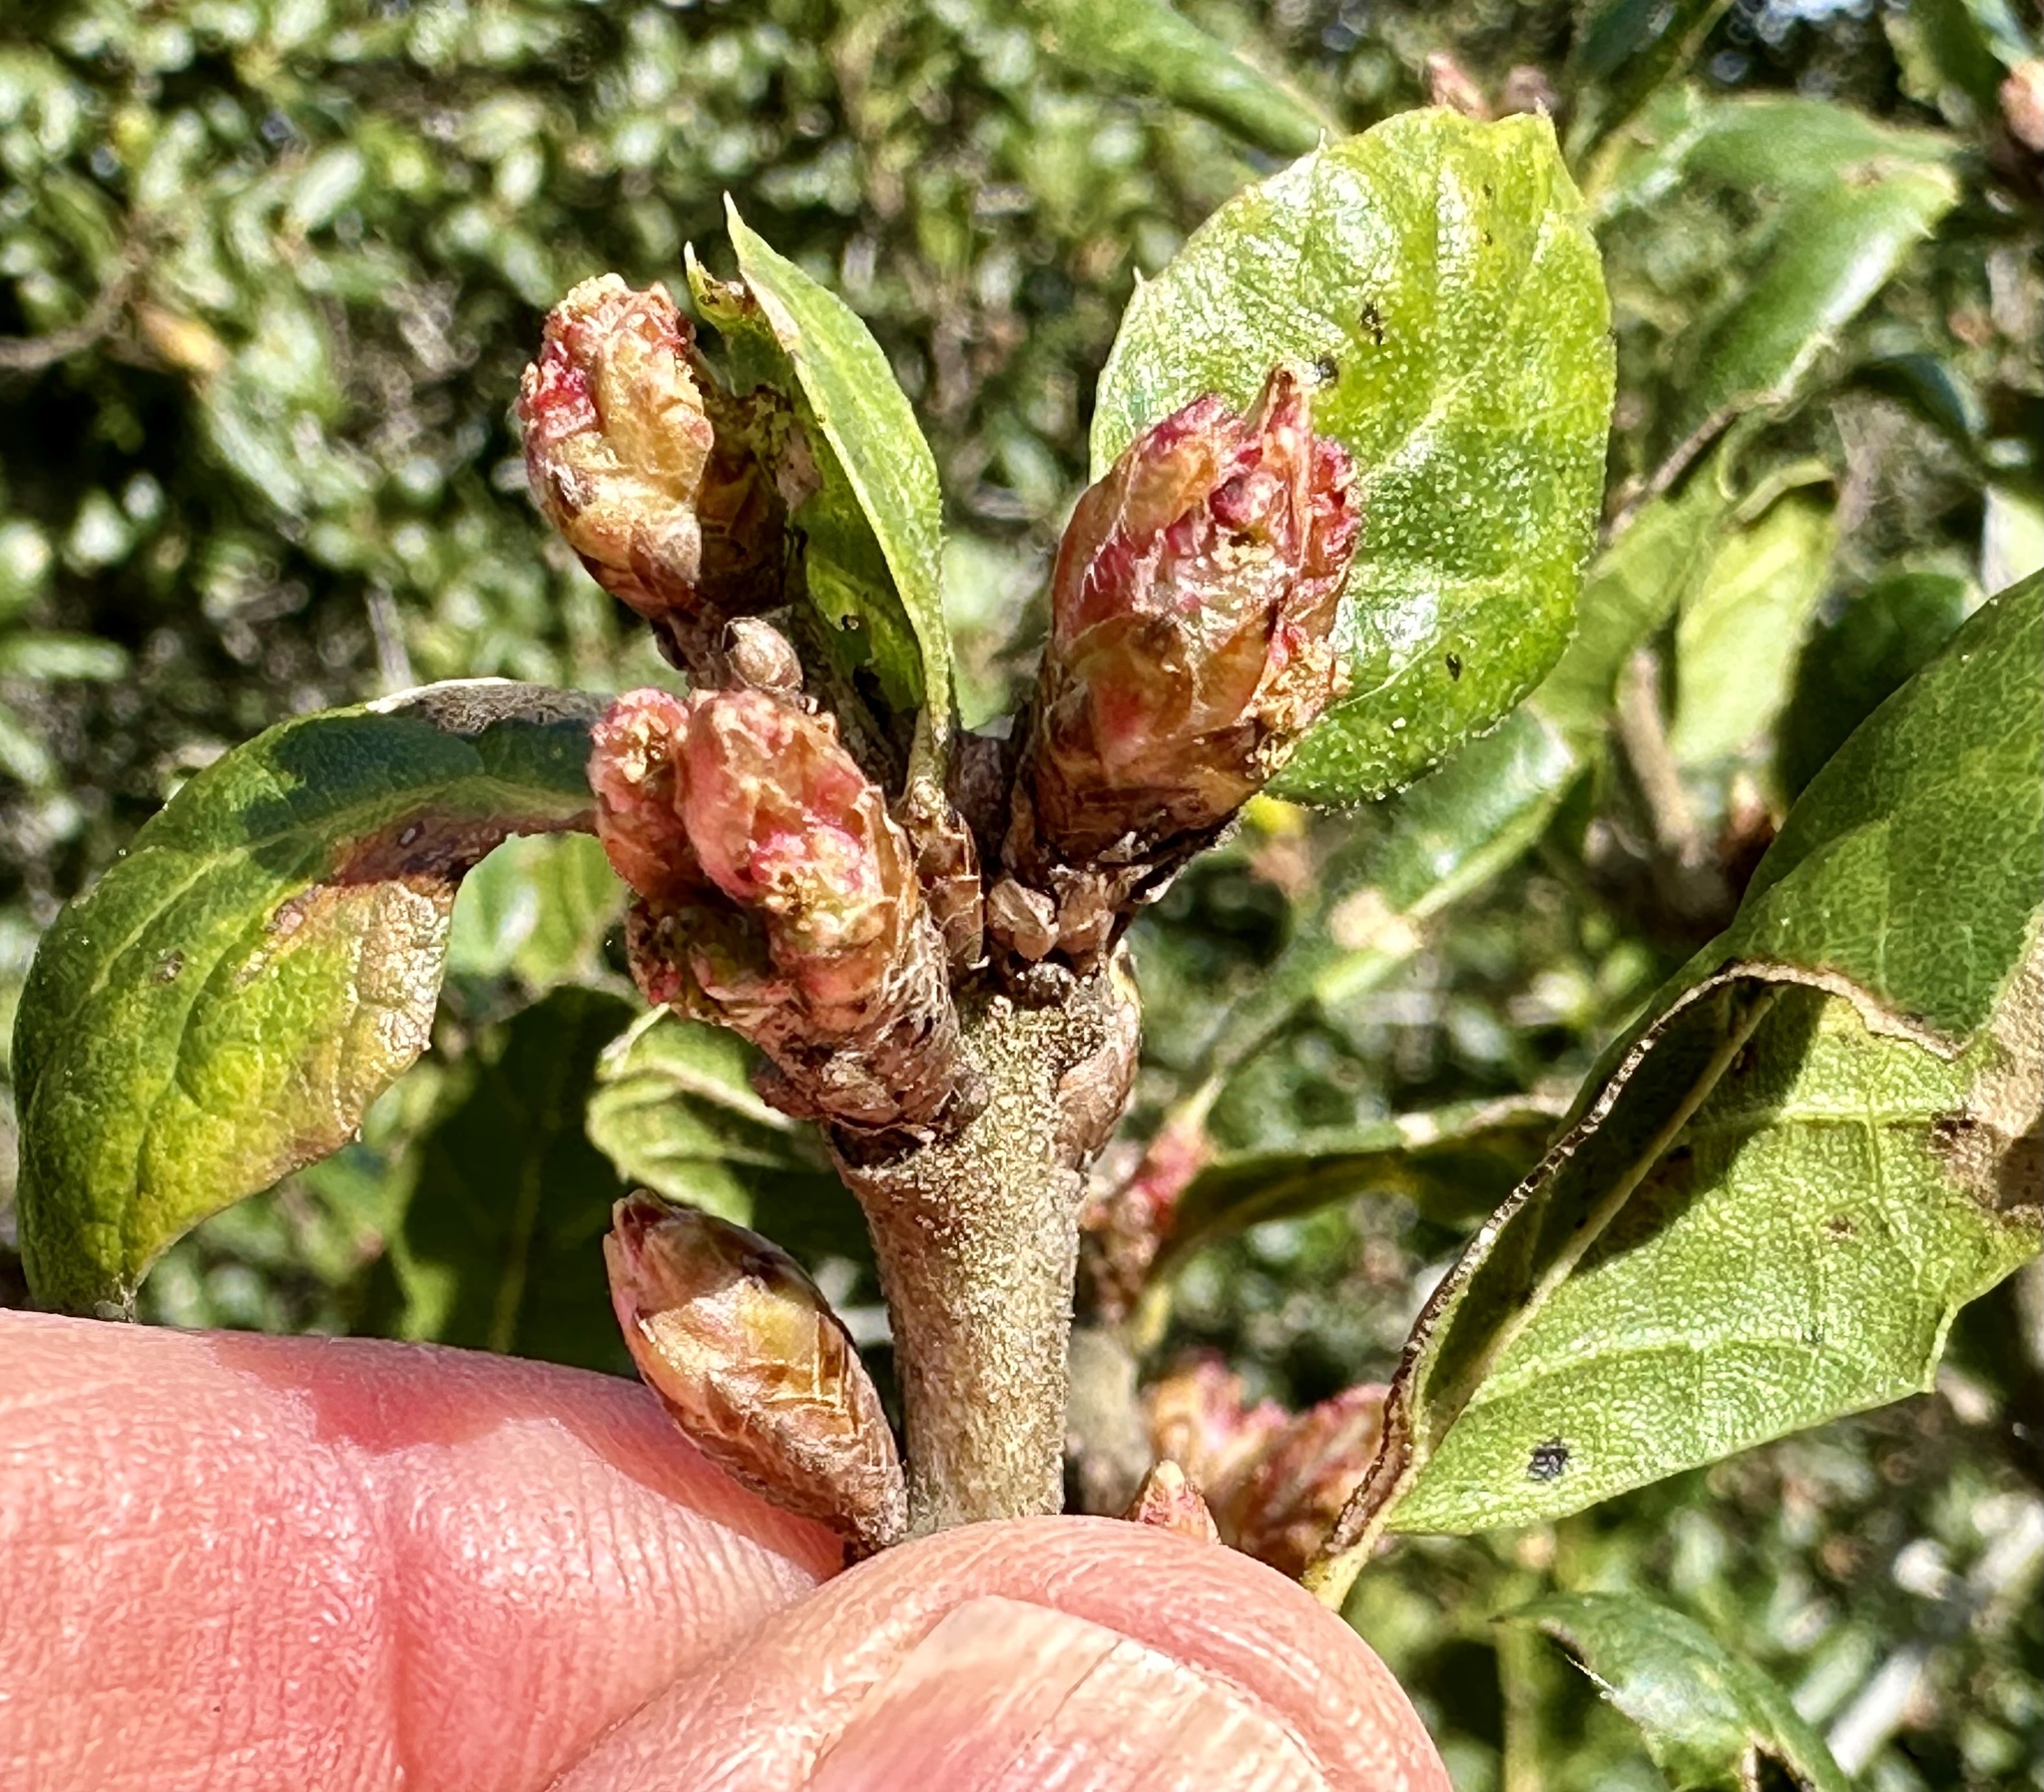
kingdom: Plantae
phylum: Tracheophyta
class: Magnoliopsida
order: Fagales
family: Fagaceae
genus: Quercus
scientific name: Quercus agrifolia
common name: California live oak
